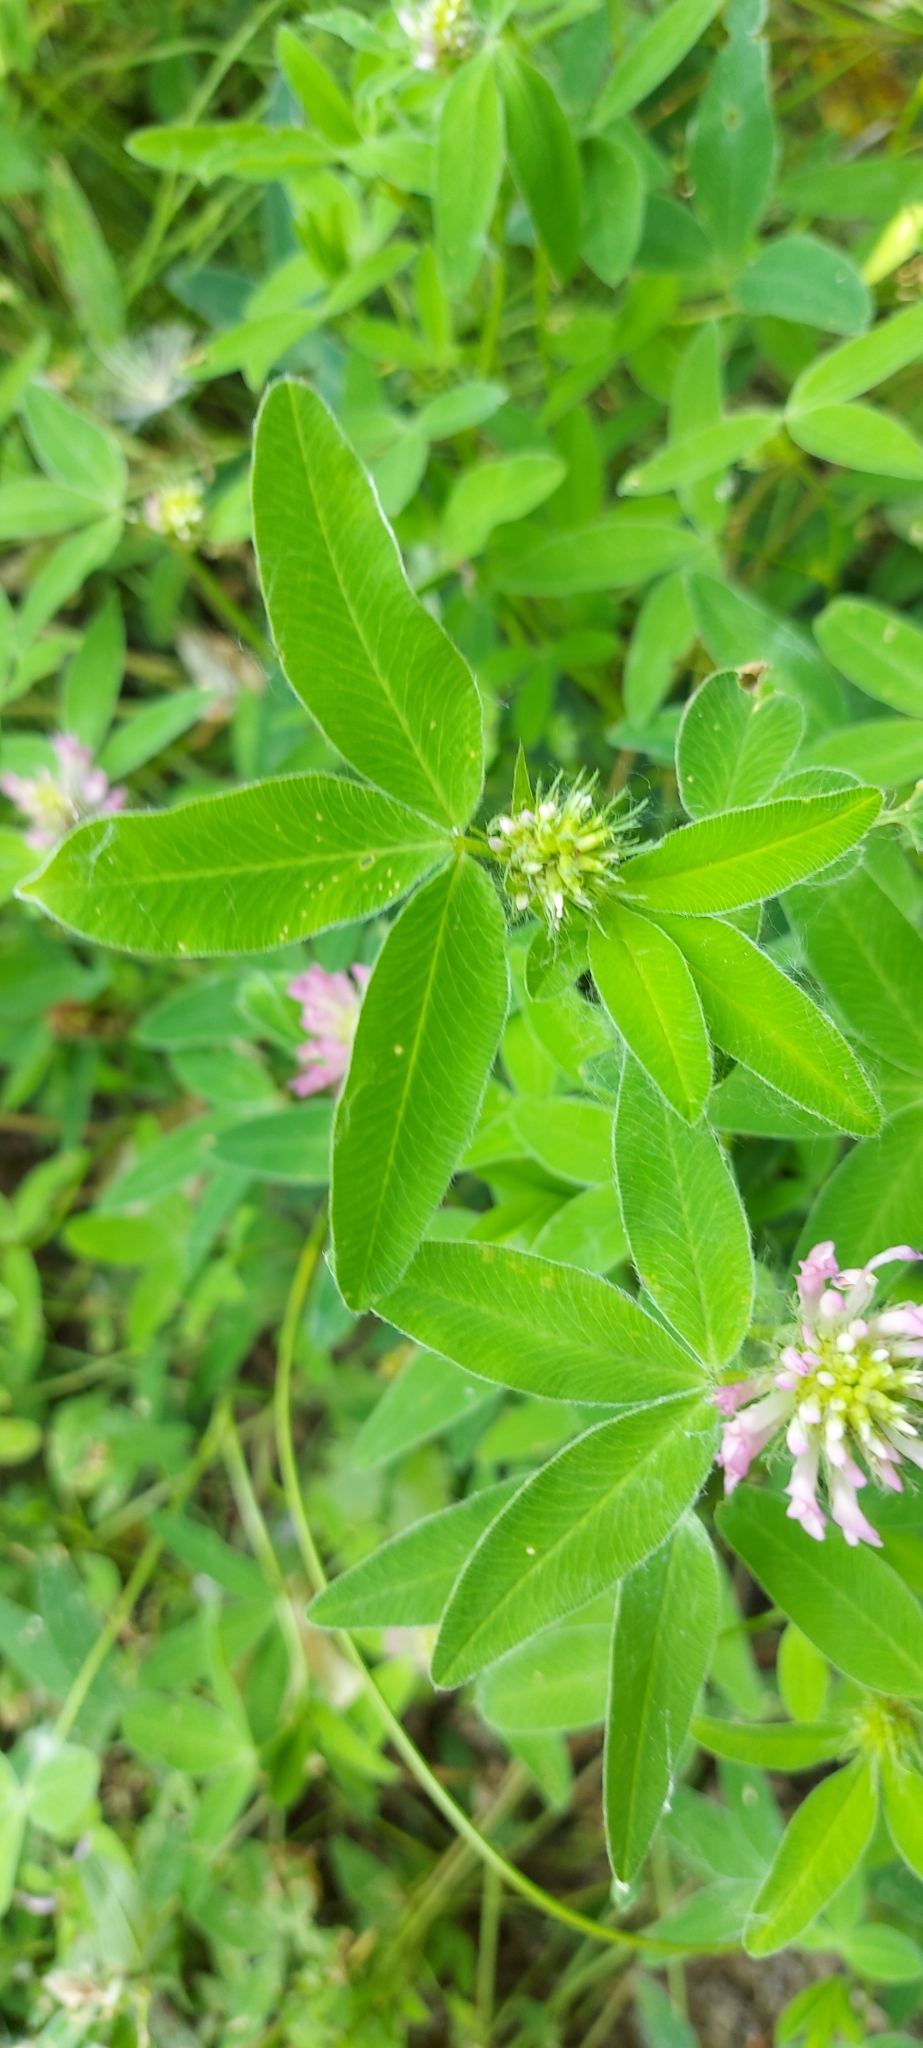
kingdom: Plantae
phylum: Tracheophyta
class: Magnoliopsida
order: Fabales
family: Fabaceae
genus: Trifolium
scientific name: Trifolium medium
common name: Zigzag clover
